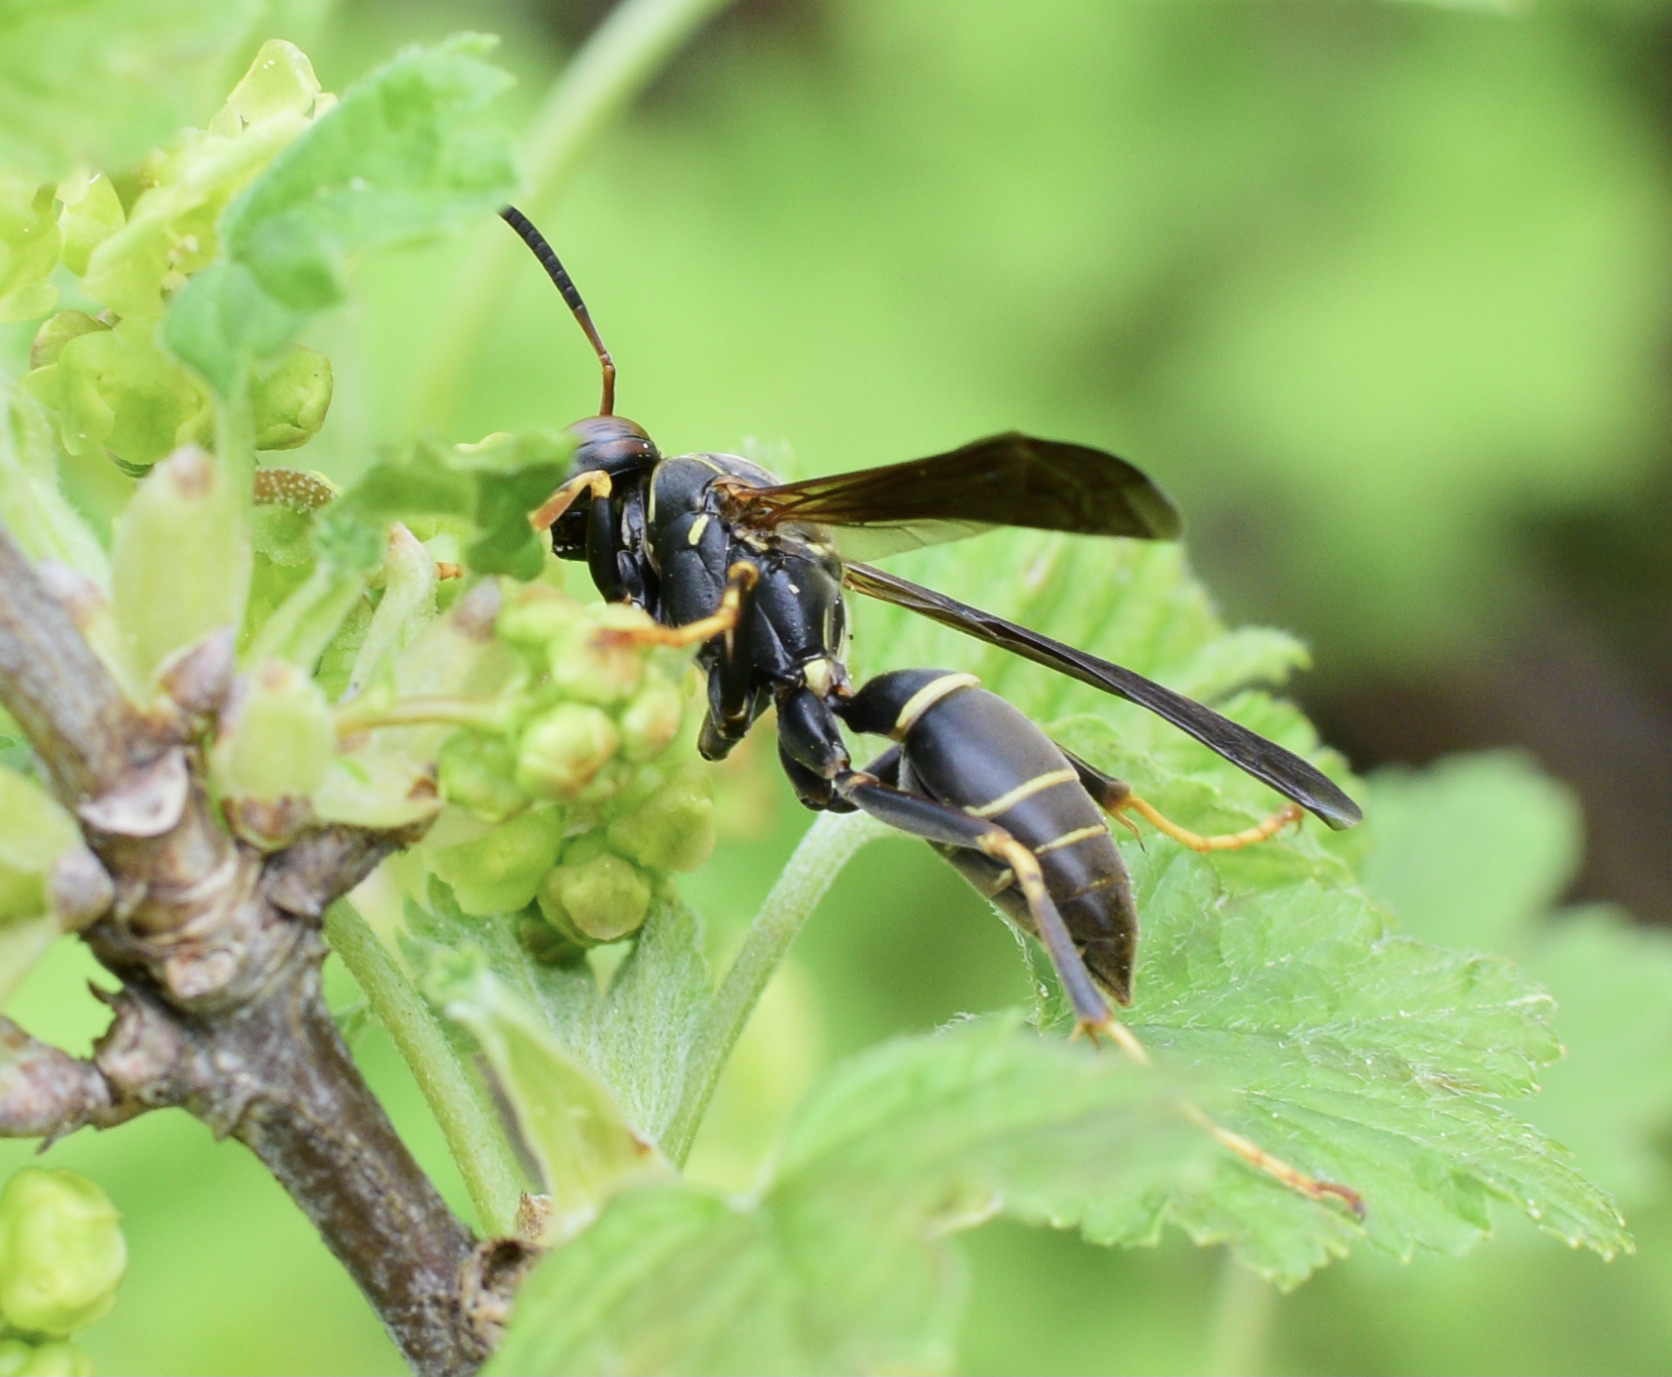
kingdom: Animalia
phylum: Arthropoda
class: Insecta
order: Hymenoptera
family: Eumenidae
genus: Polistes
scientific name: Polistes fuscatus
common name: Dark paper wasp
